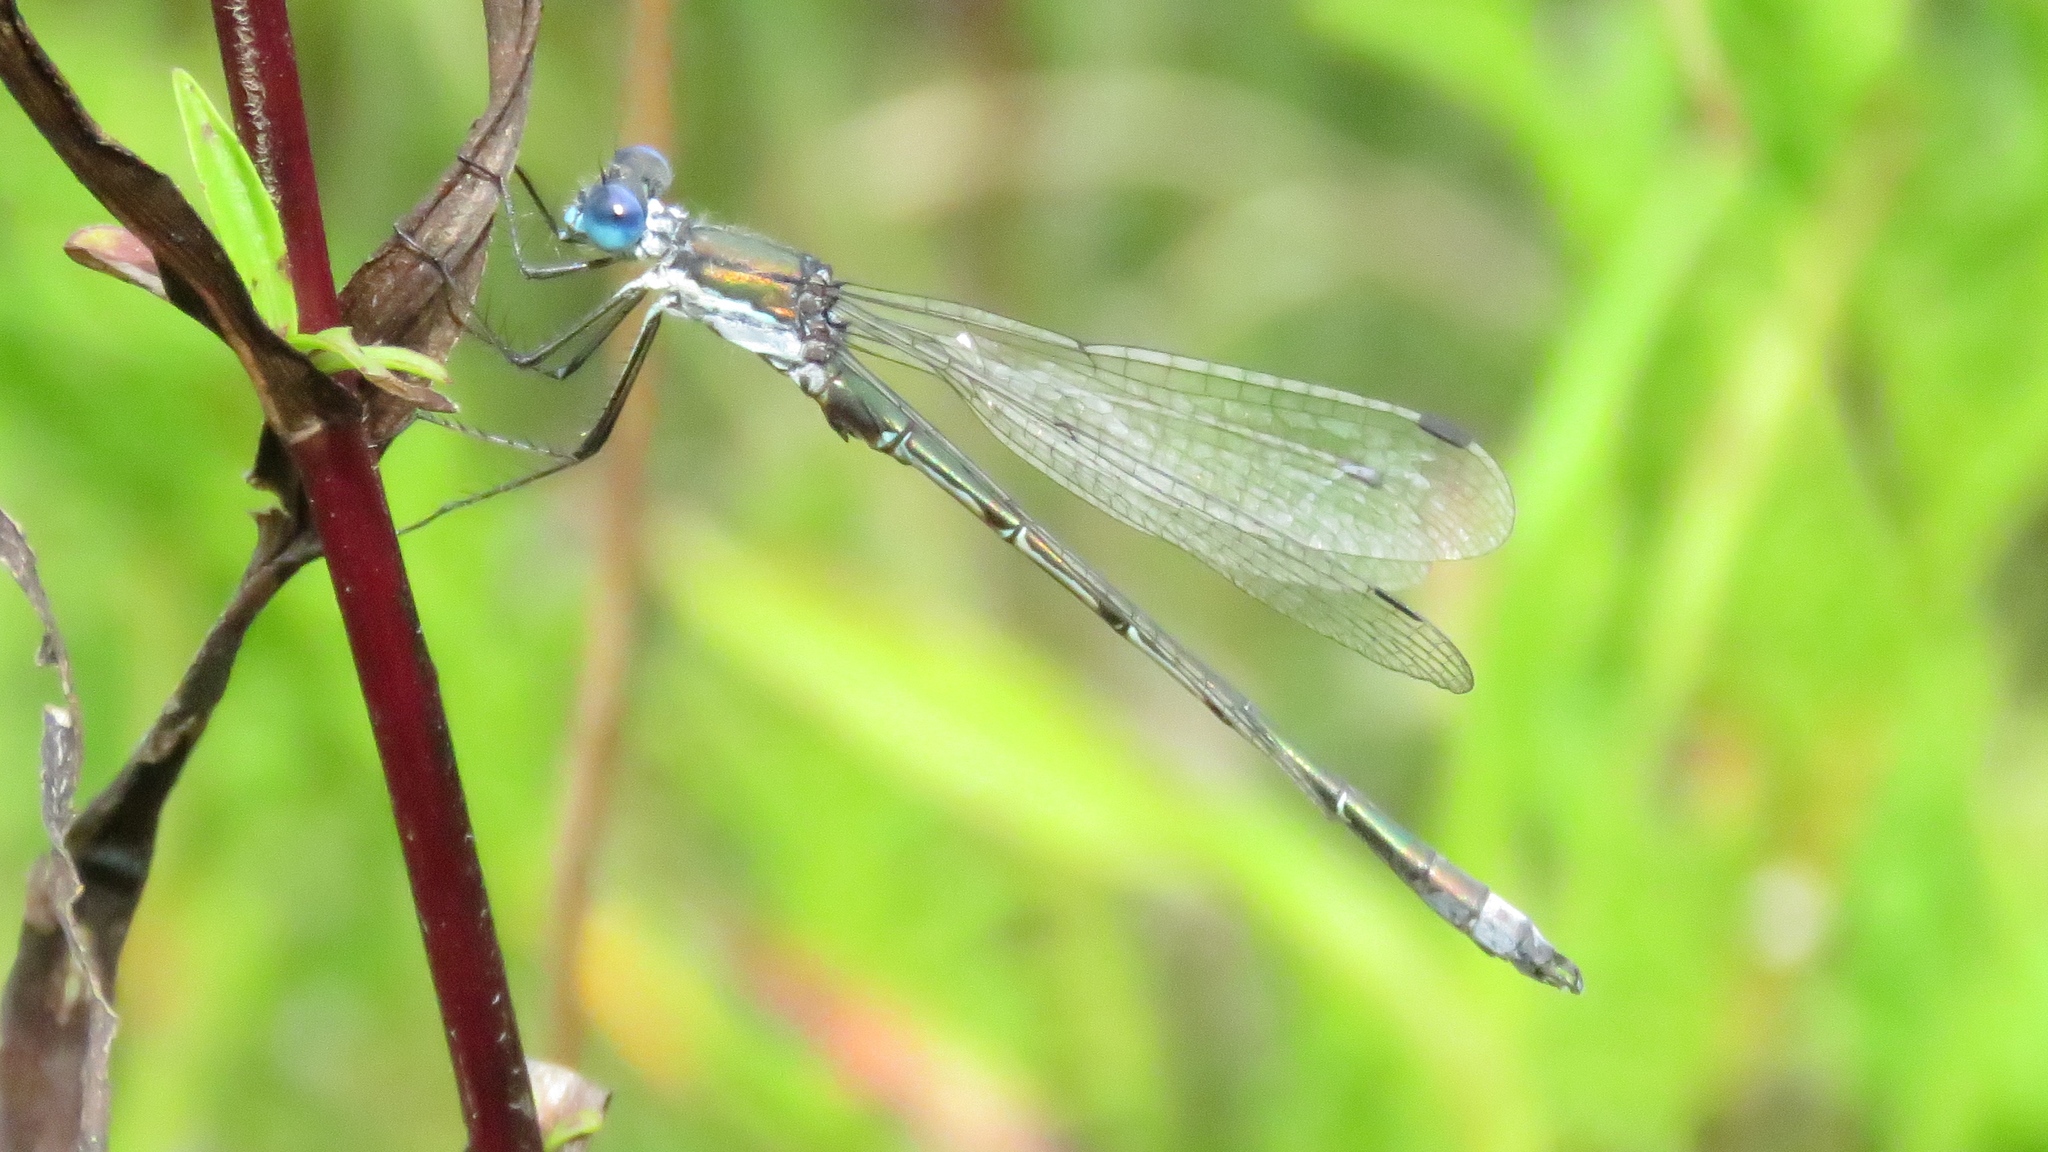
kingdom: Animalia
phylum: Arthropoda
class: Insecta
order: Odonata
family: Lestidae
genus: Lestes
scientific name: Lestes dryas
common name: Scarce emerald damselfly
